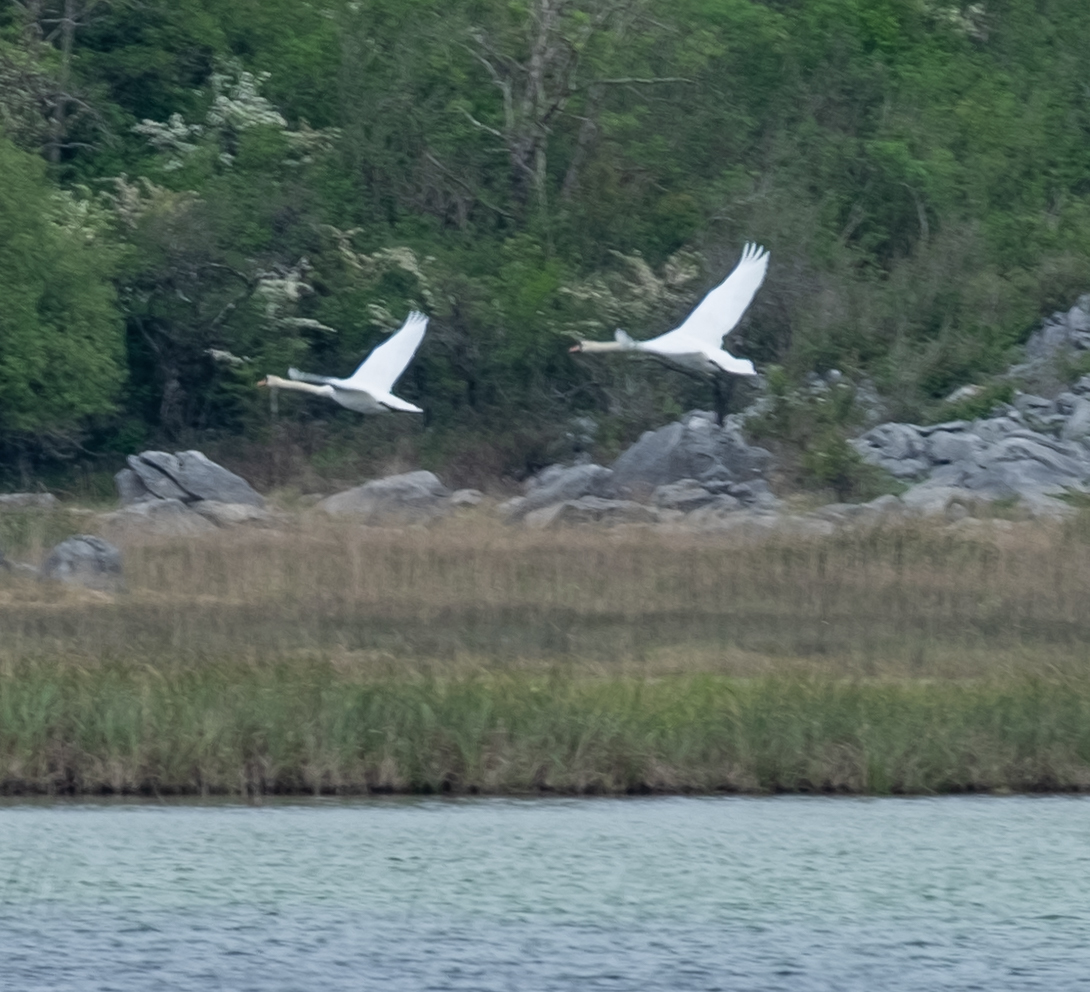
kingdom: Animalia
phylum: Chordata
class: Aves
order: Anseriformes
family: Anatidae
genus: Cygnus
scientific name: Cygnus olor
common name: Mute swan
